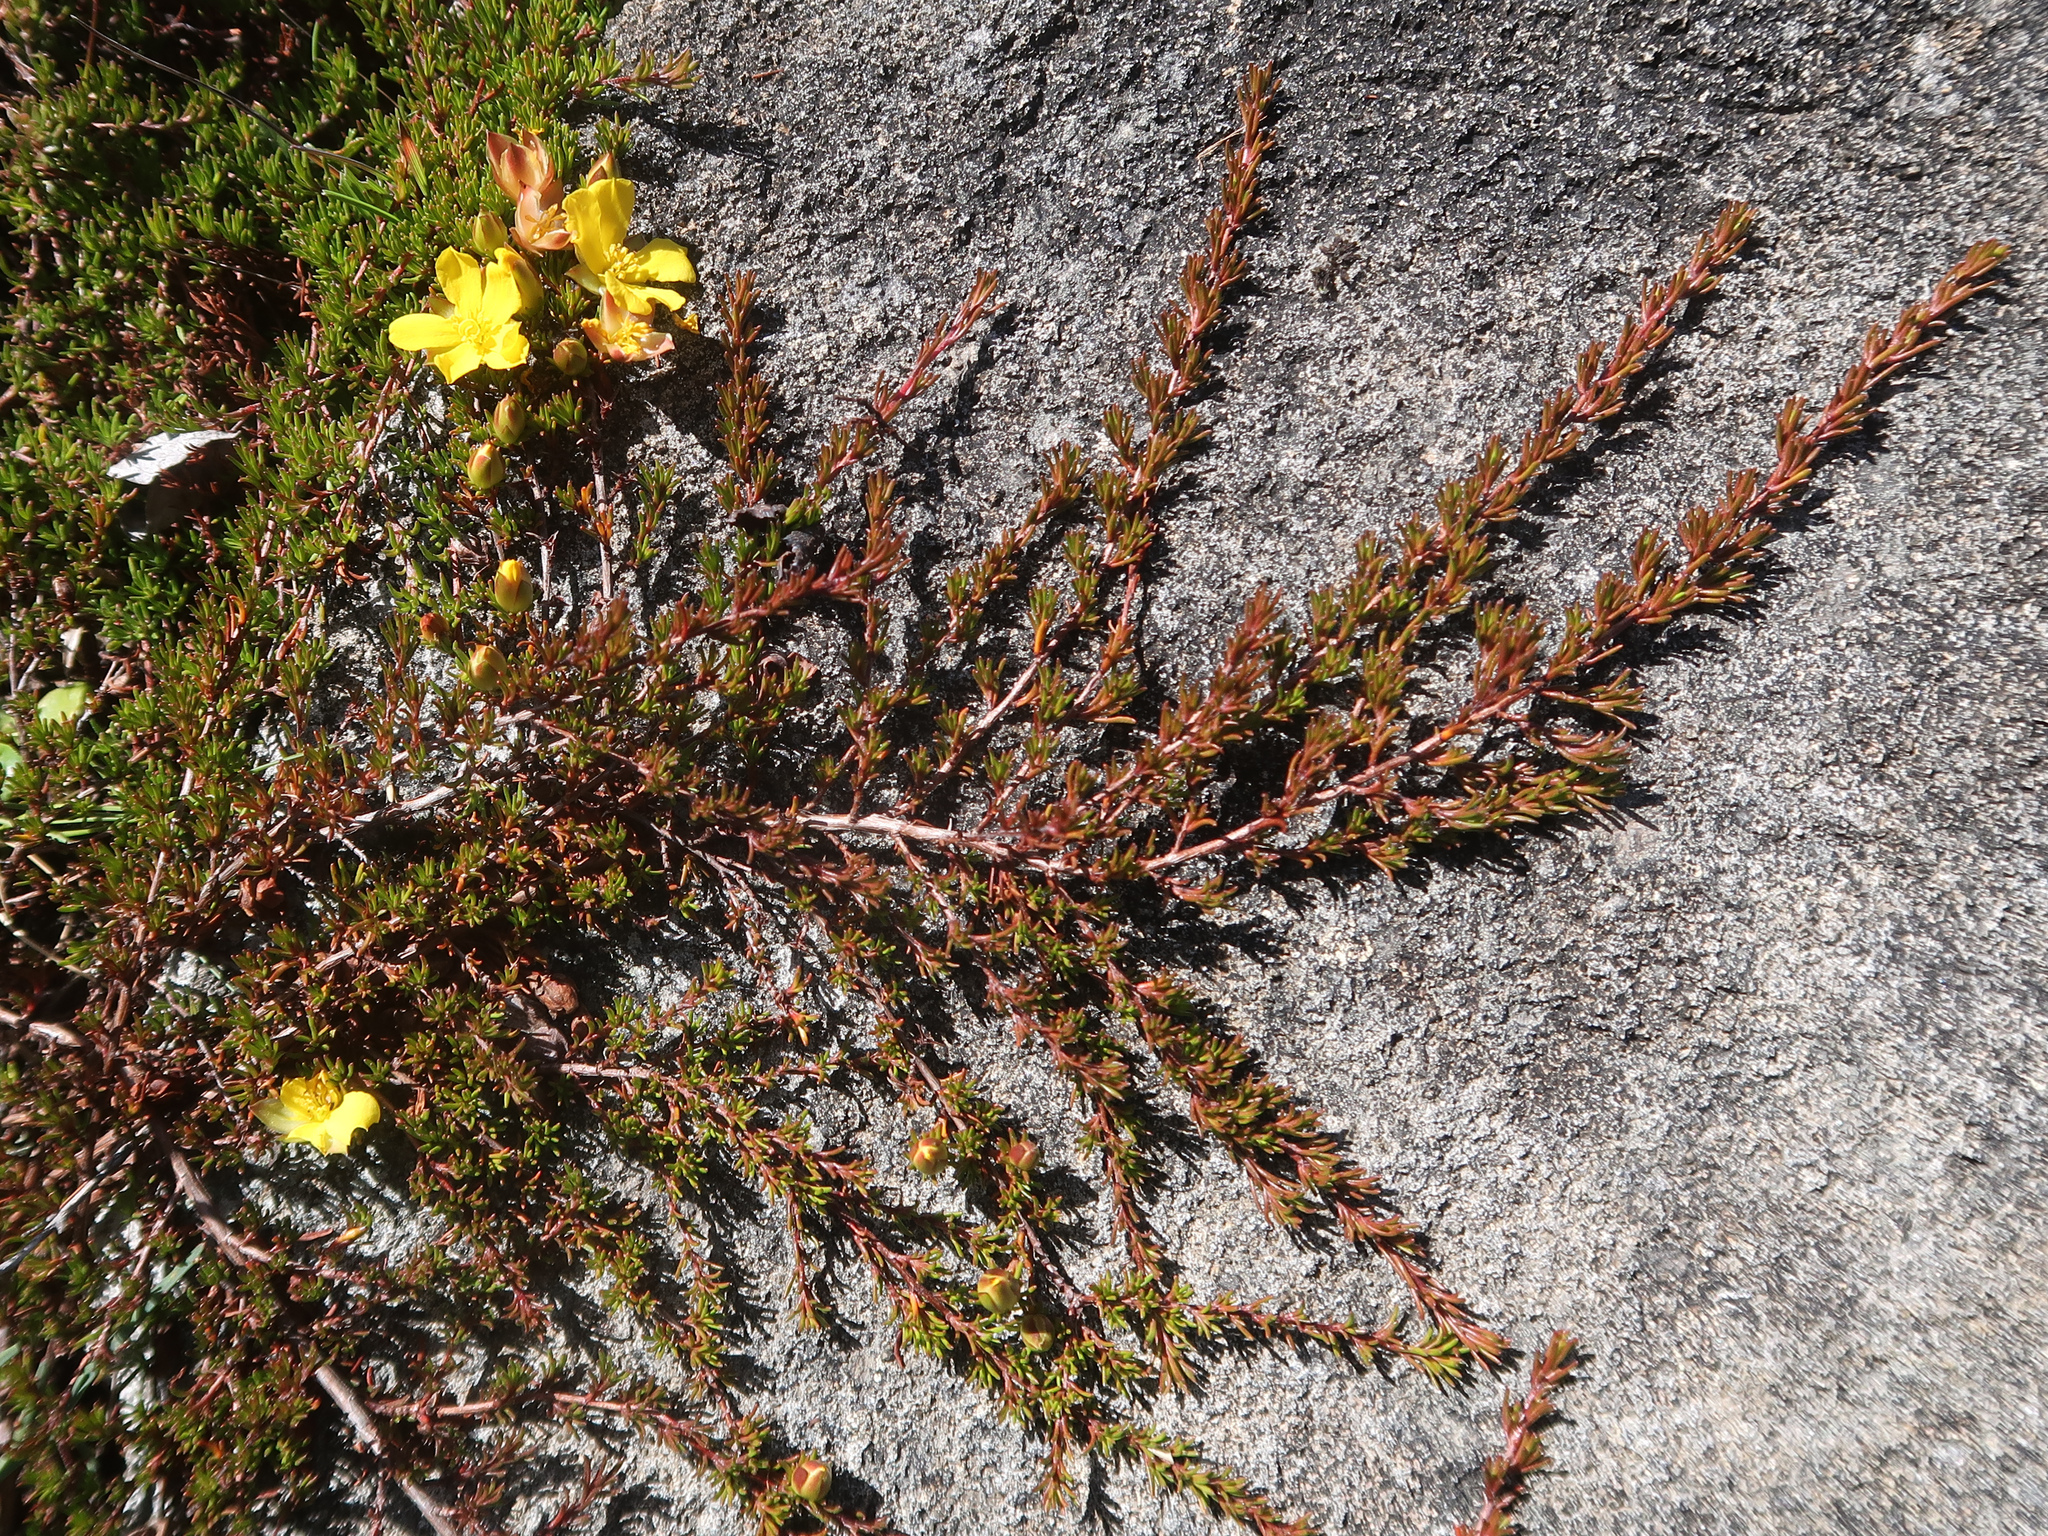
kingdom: Plantae
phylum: Tracheophyta
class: Magnoliopsida
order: Dilleniales
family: Dilleniaceae
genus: Hibbertia
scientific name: Hibbertia prostrata
